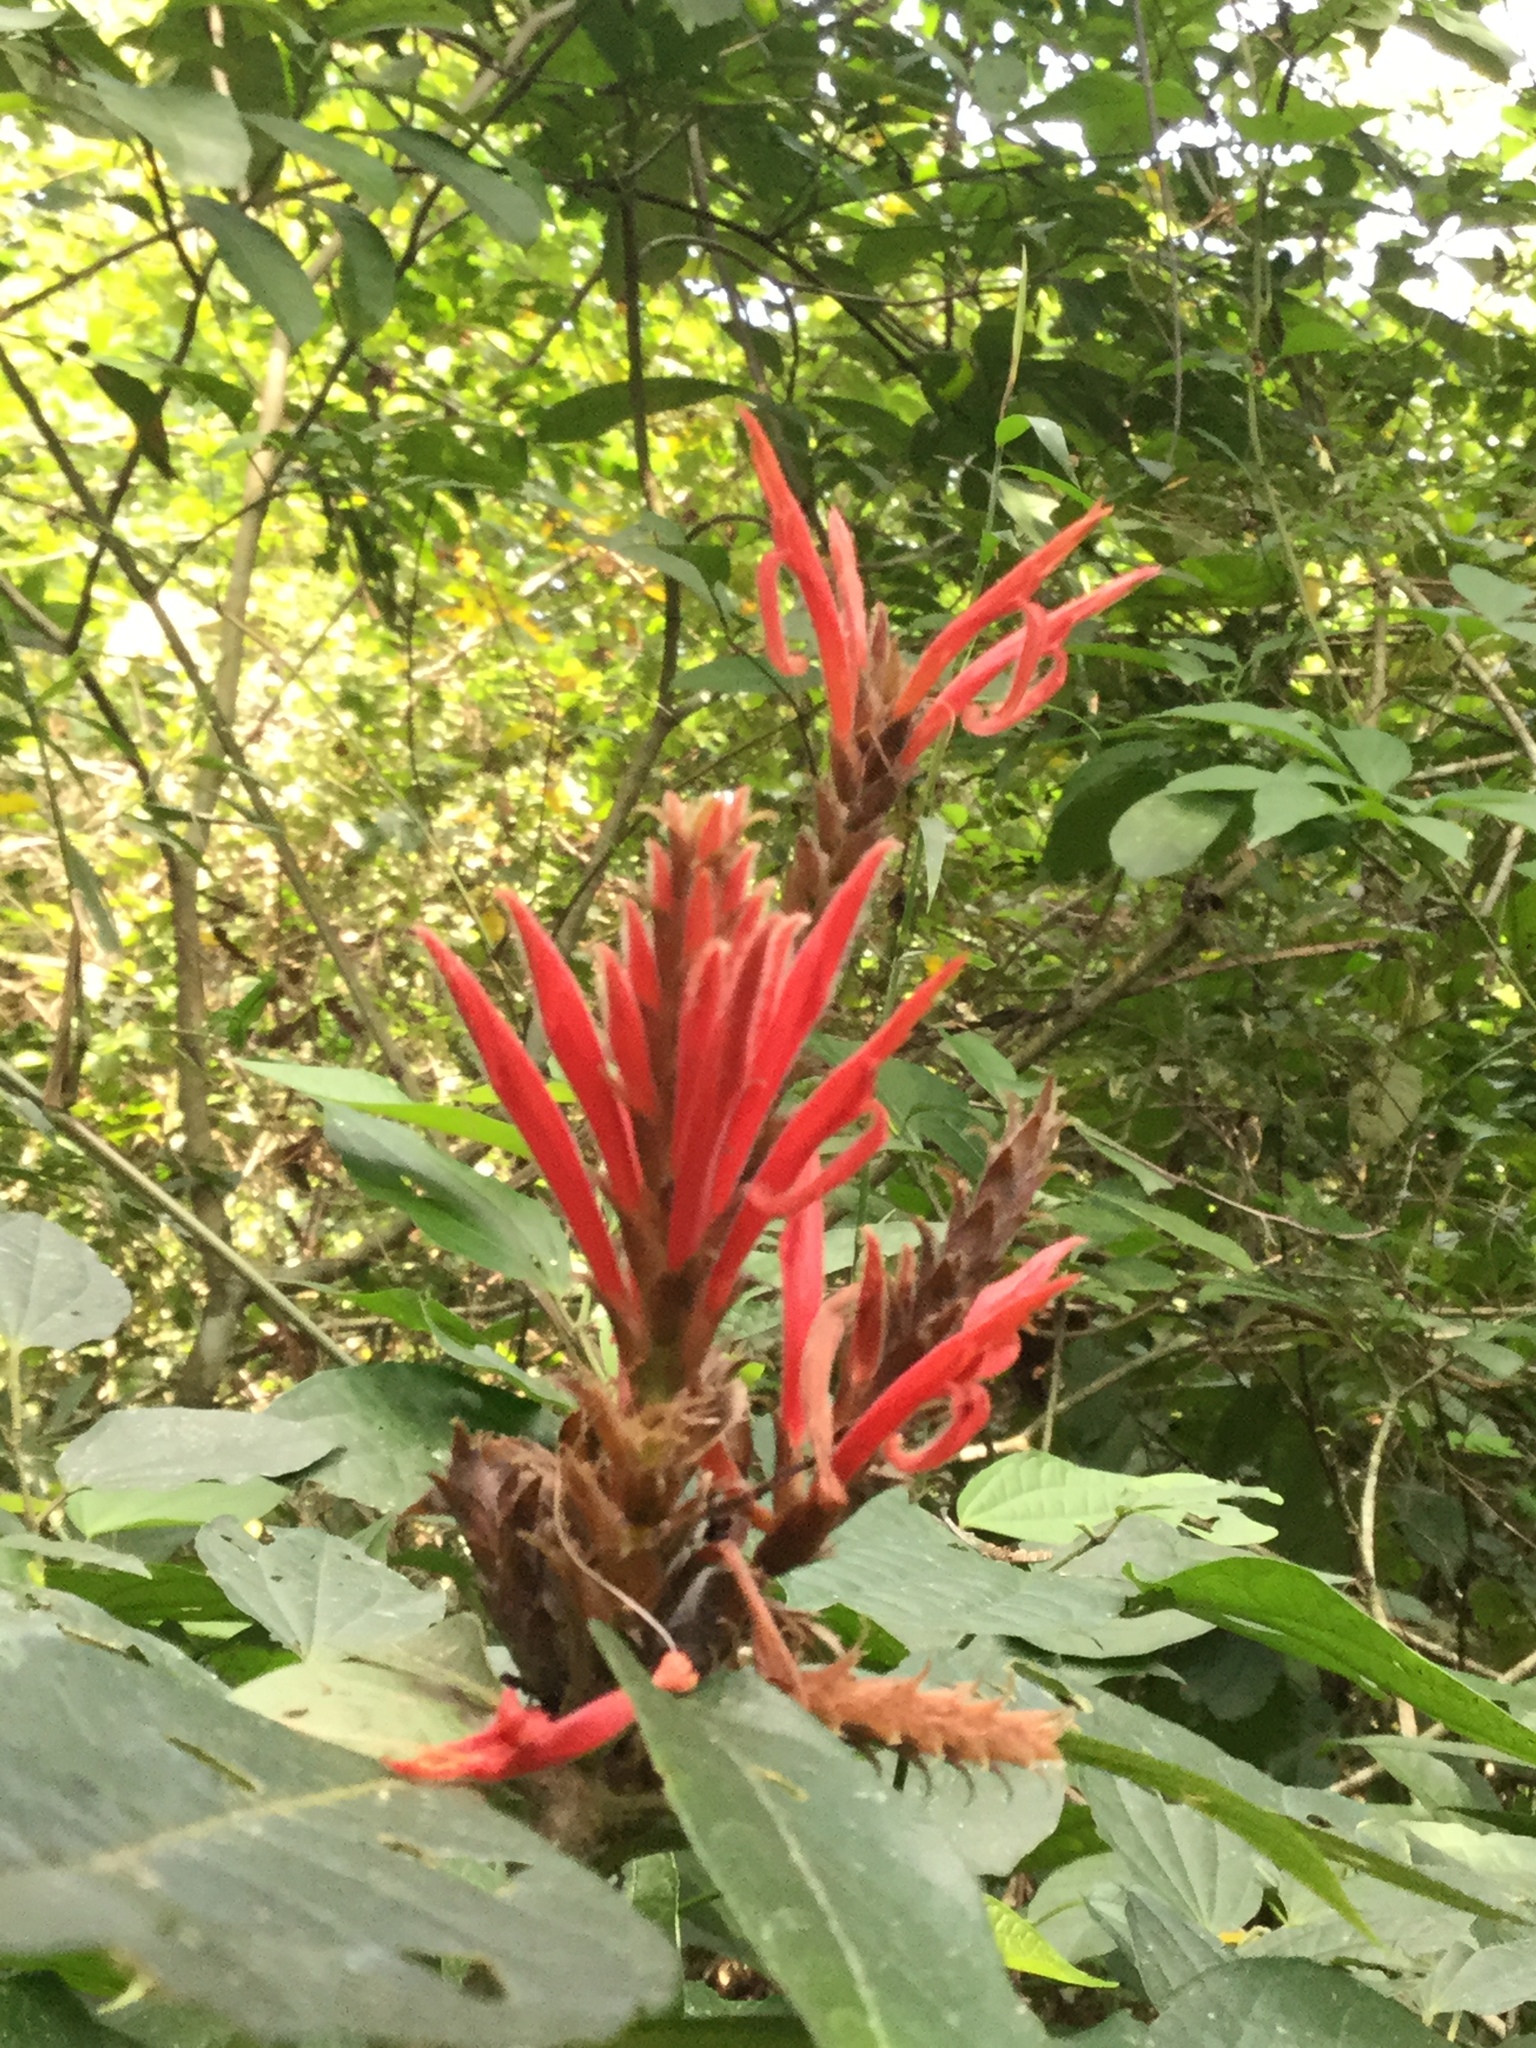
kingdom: Plantae
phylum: Tracheophyta
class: Magnoliopsida
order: Lamiales
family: Acanthaceae
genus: Aphelandra
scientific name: Aphelandra scabra
